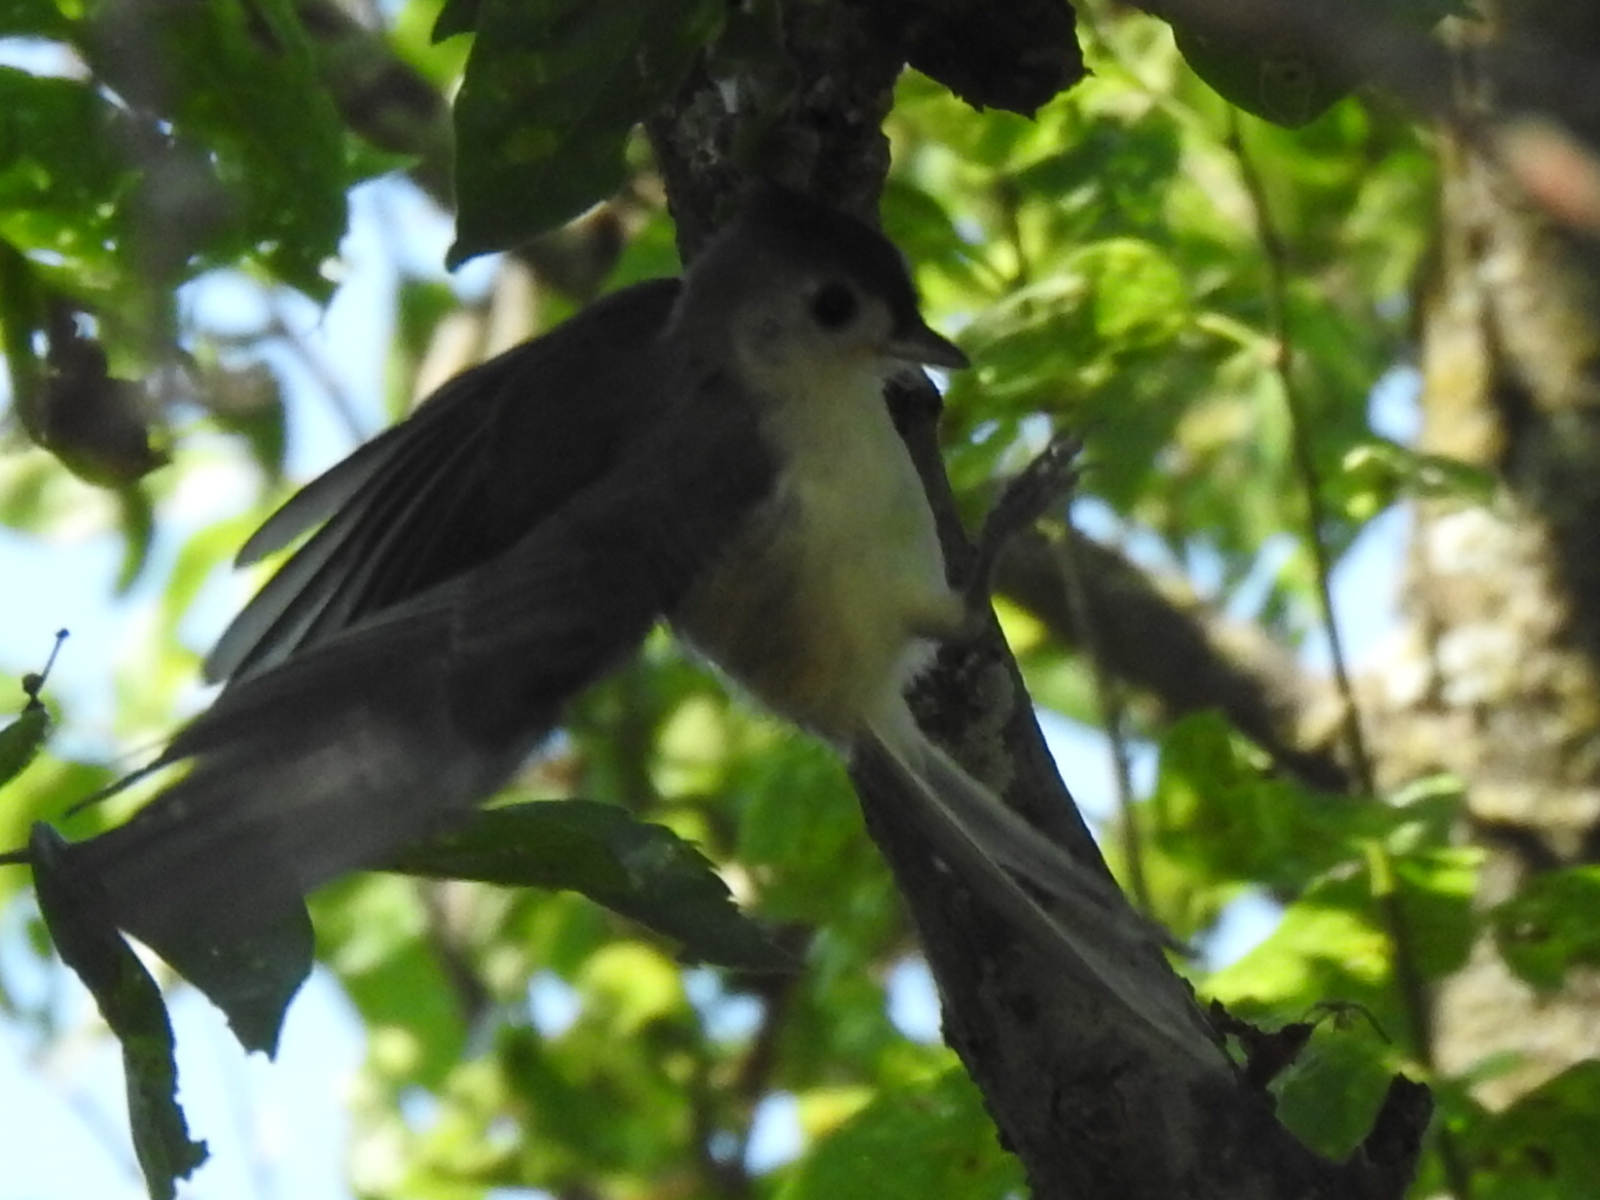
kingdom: Animalia
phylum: Chordata
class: Aves
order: Passeriformes
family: Paridae
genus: Baeolophus
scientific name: Baeolophus bicolor
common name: Tufted titmouse
